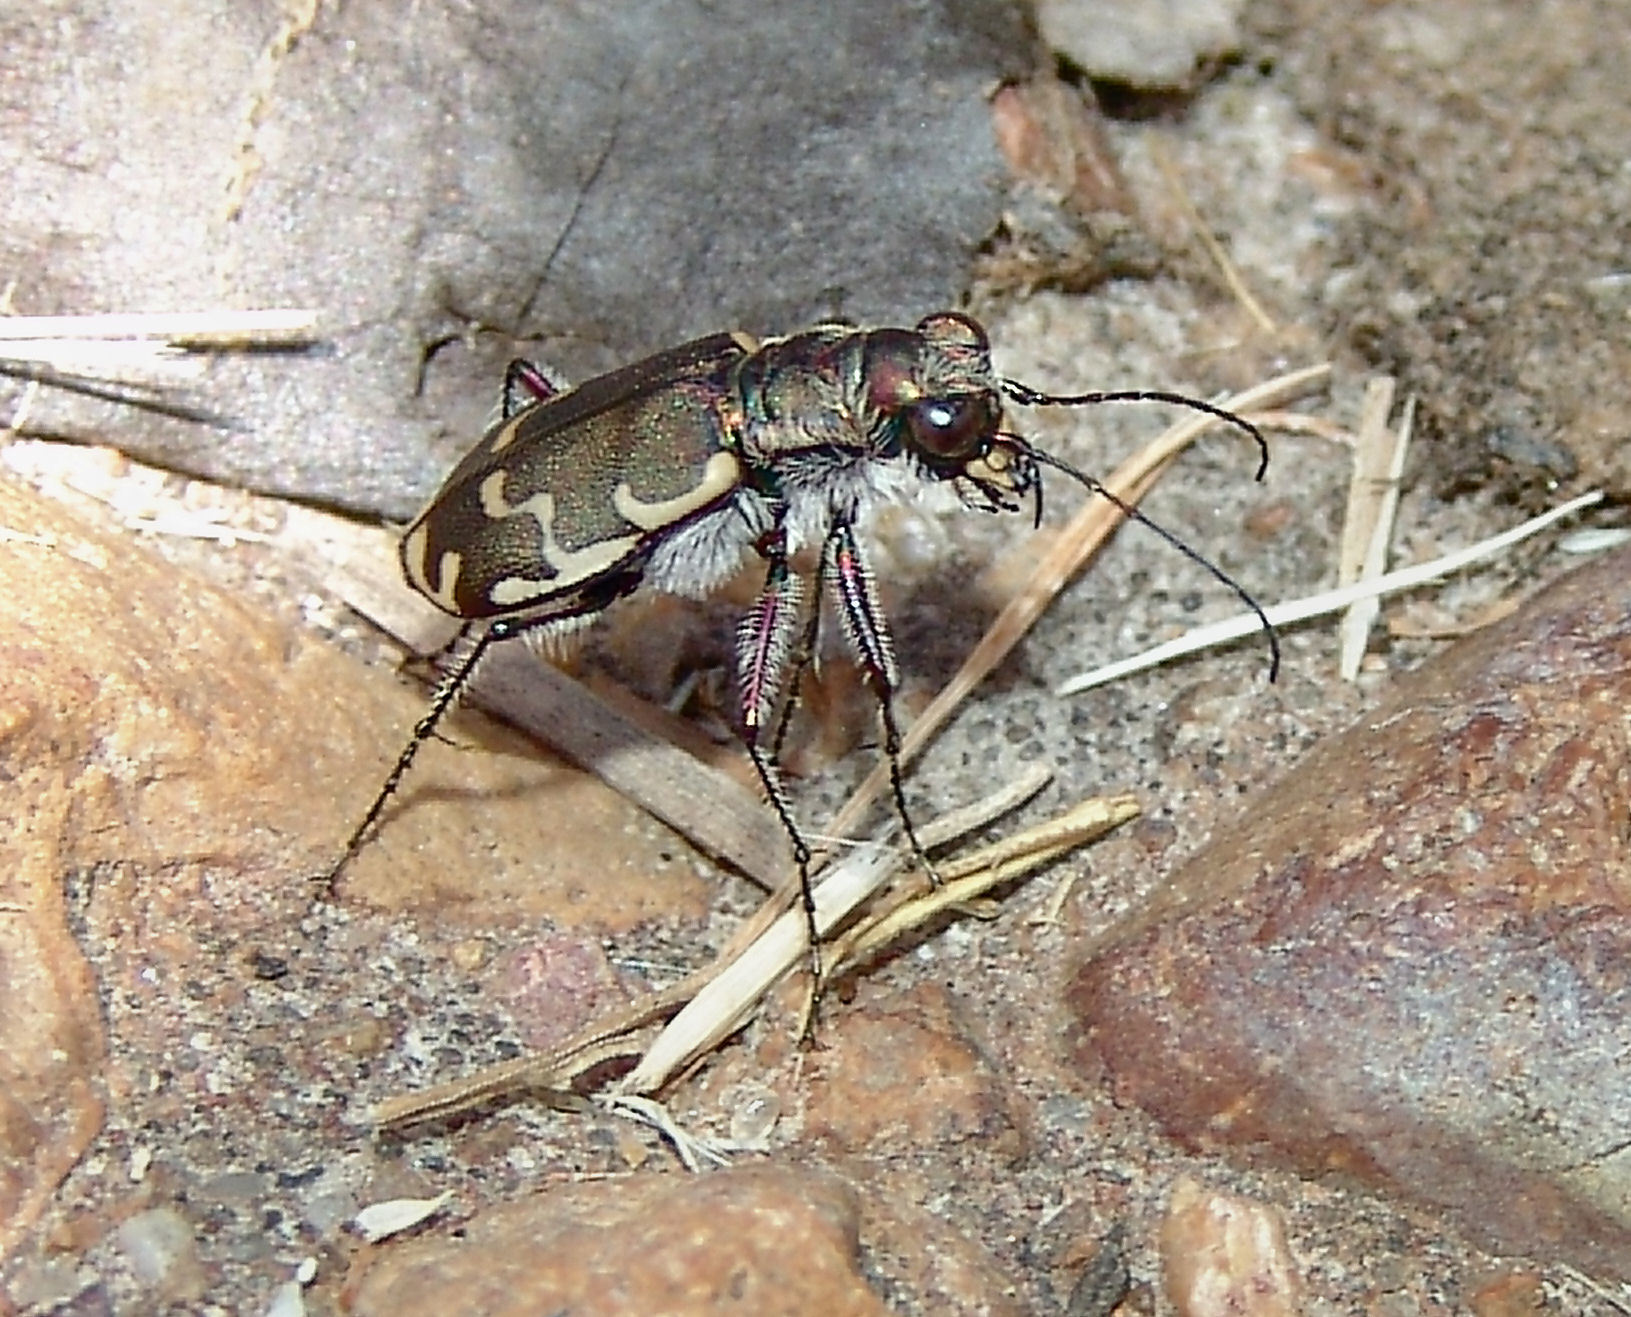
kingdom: Animalia
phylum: Arthropoda
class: Insecta
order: Coleoptera
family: Carabidae
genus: Cicindela
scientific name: Cicindela repanda
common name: Bronzed tiger beetle
